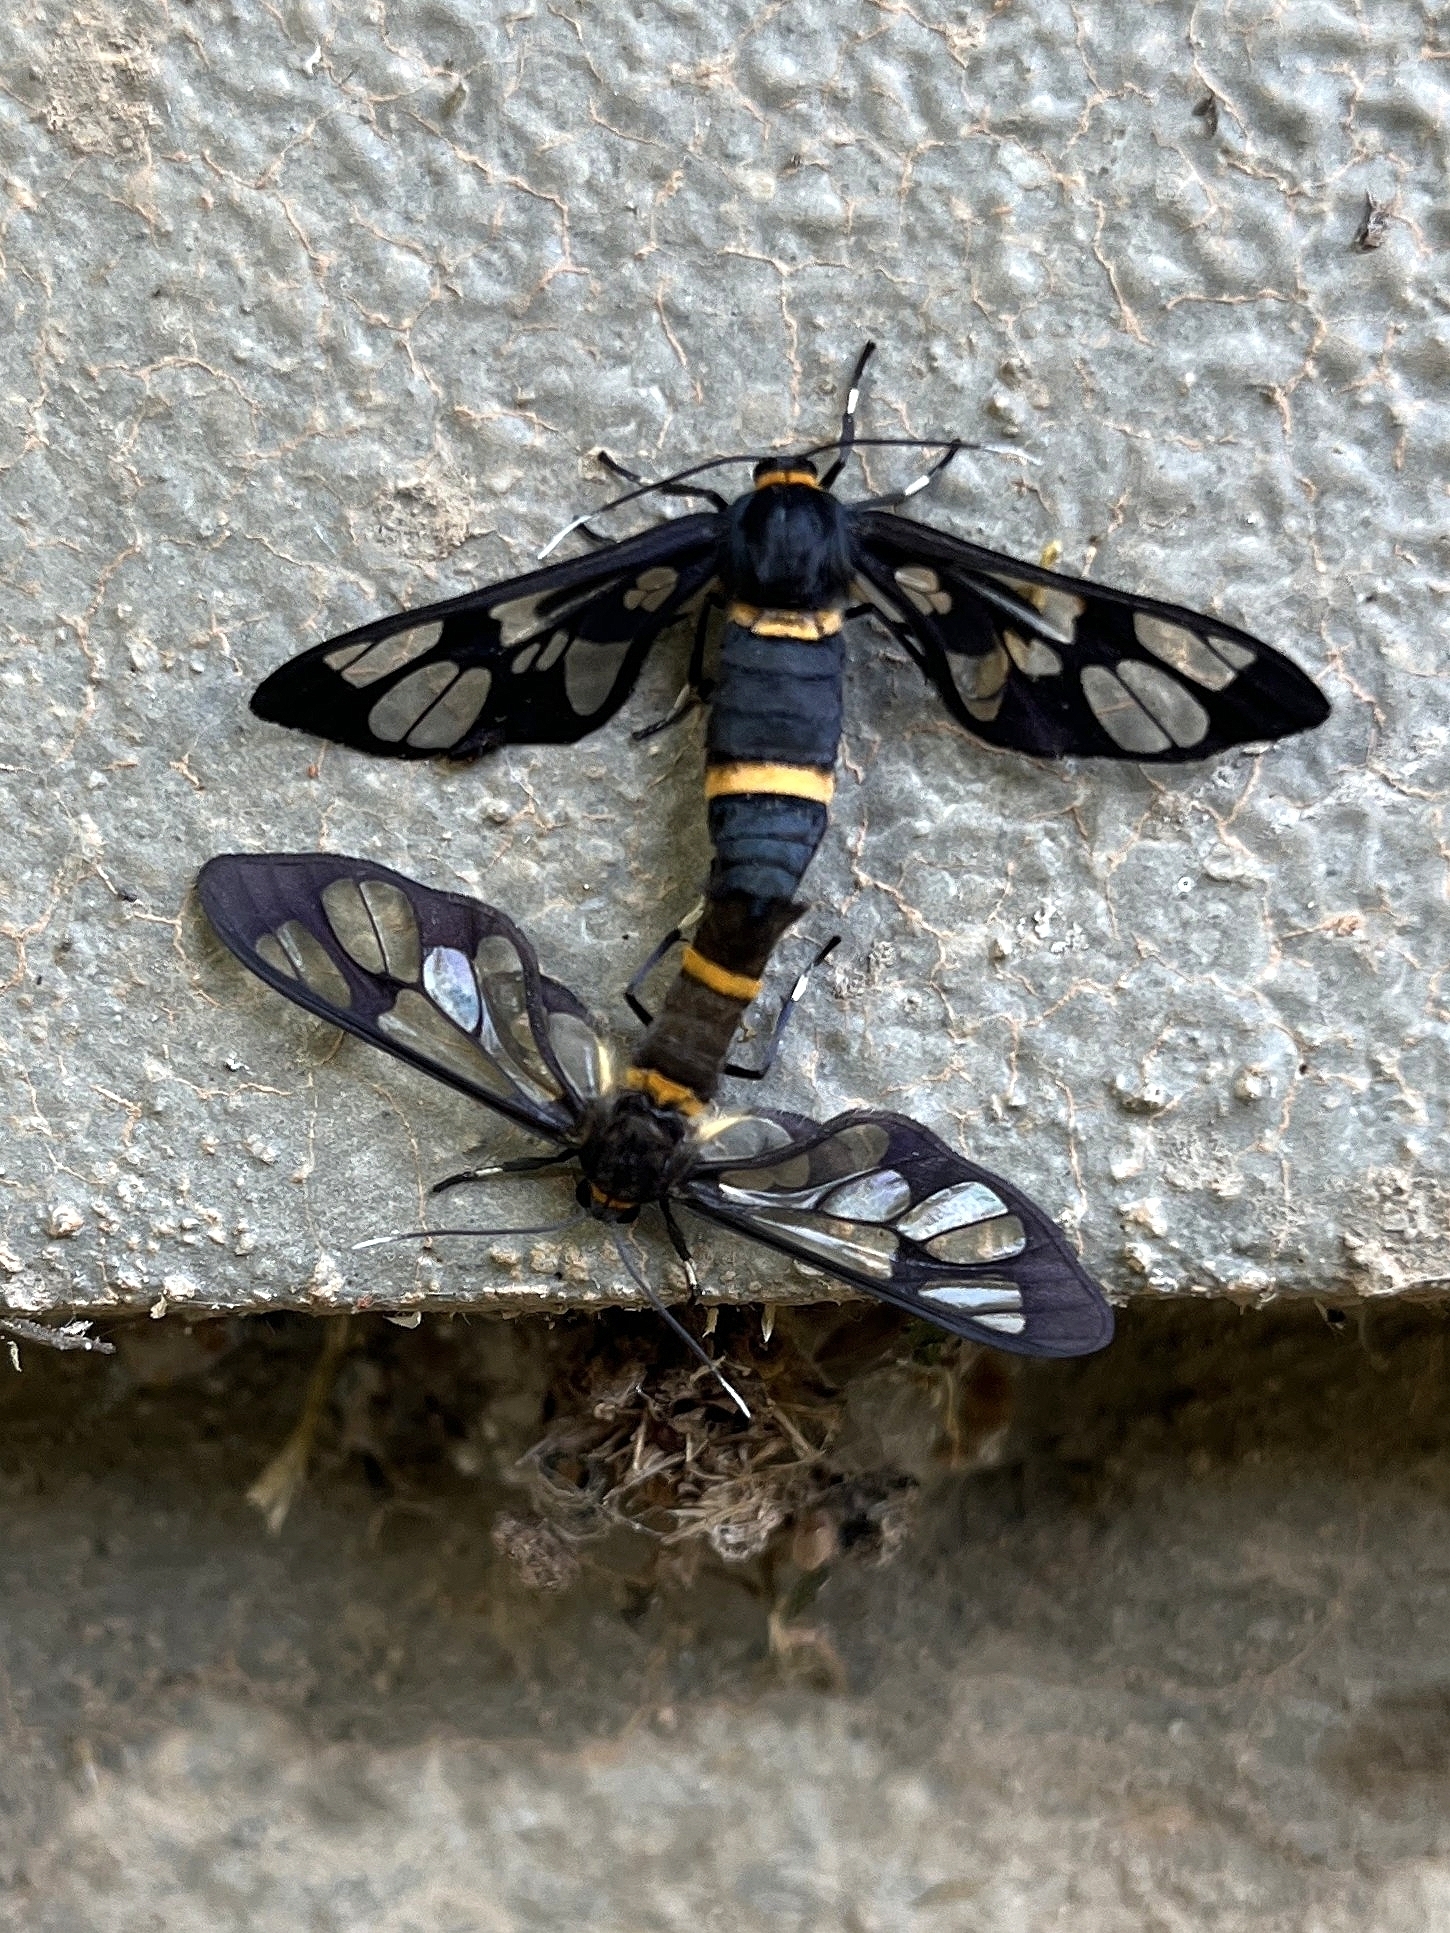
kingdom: Animalia
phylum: Arthropoda
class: Insecta
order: Lepidoptera
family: Erebidae
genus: Syntomoides
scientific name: Syntomoides imaon
